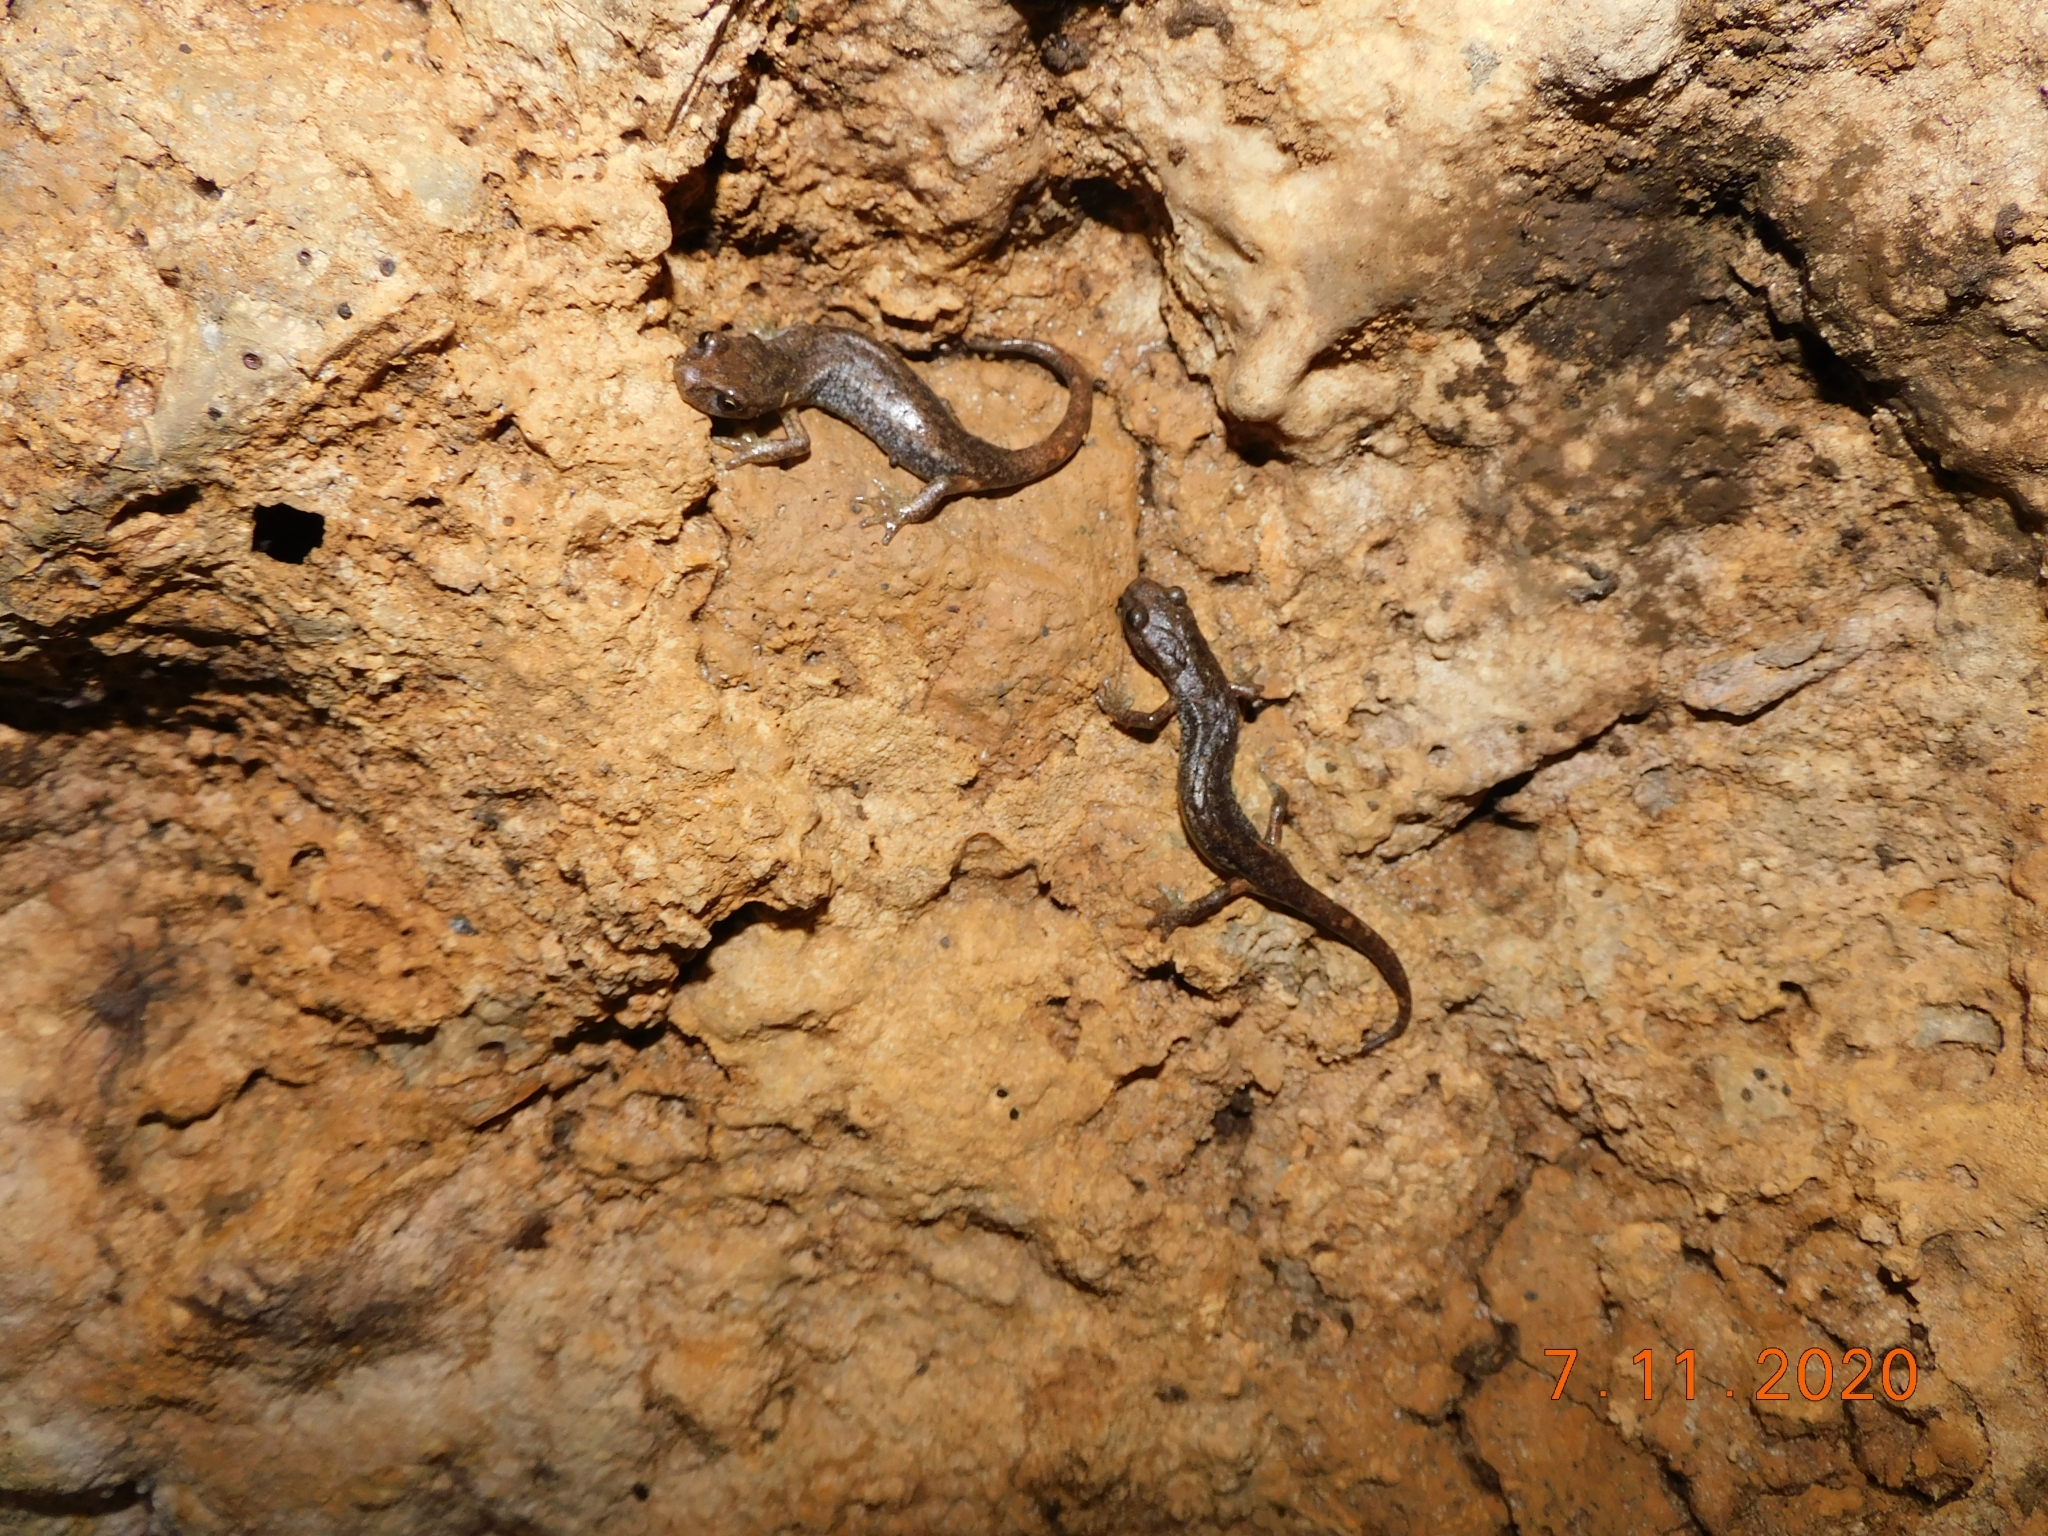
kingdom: Animalia
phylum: Chordata
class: Amphibia
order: Caudata
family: Plethodontidae
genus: Speleomantes
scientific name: Speleomantes ambrosii
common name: Ambrosi's cave salamander
